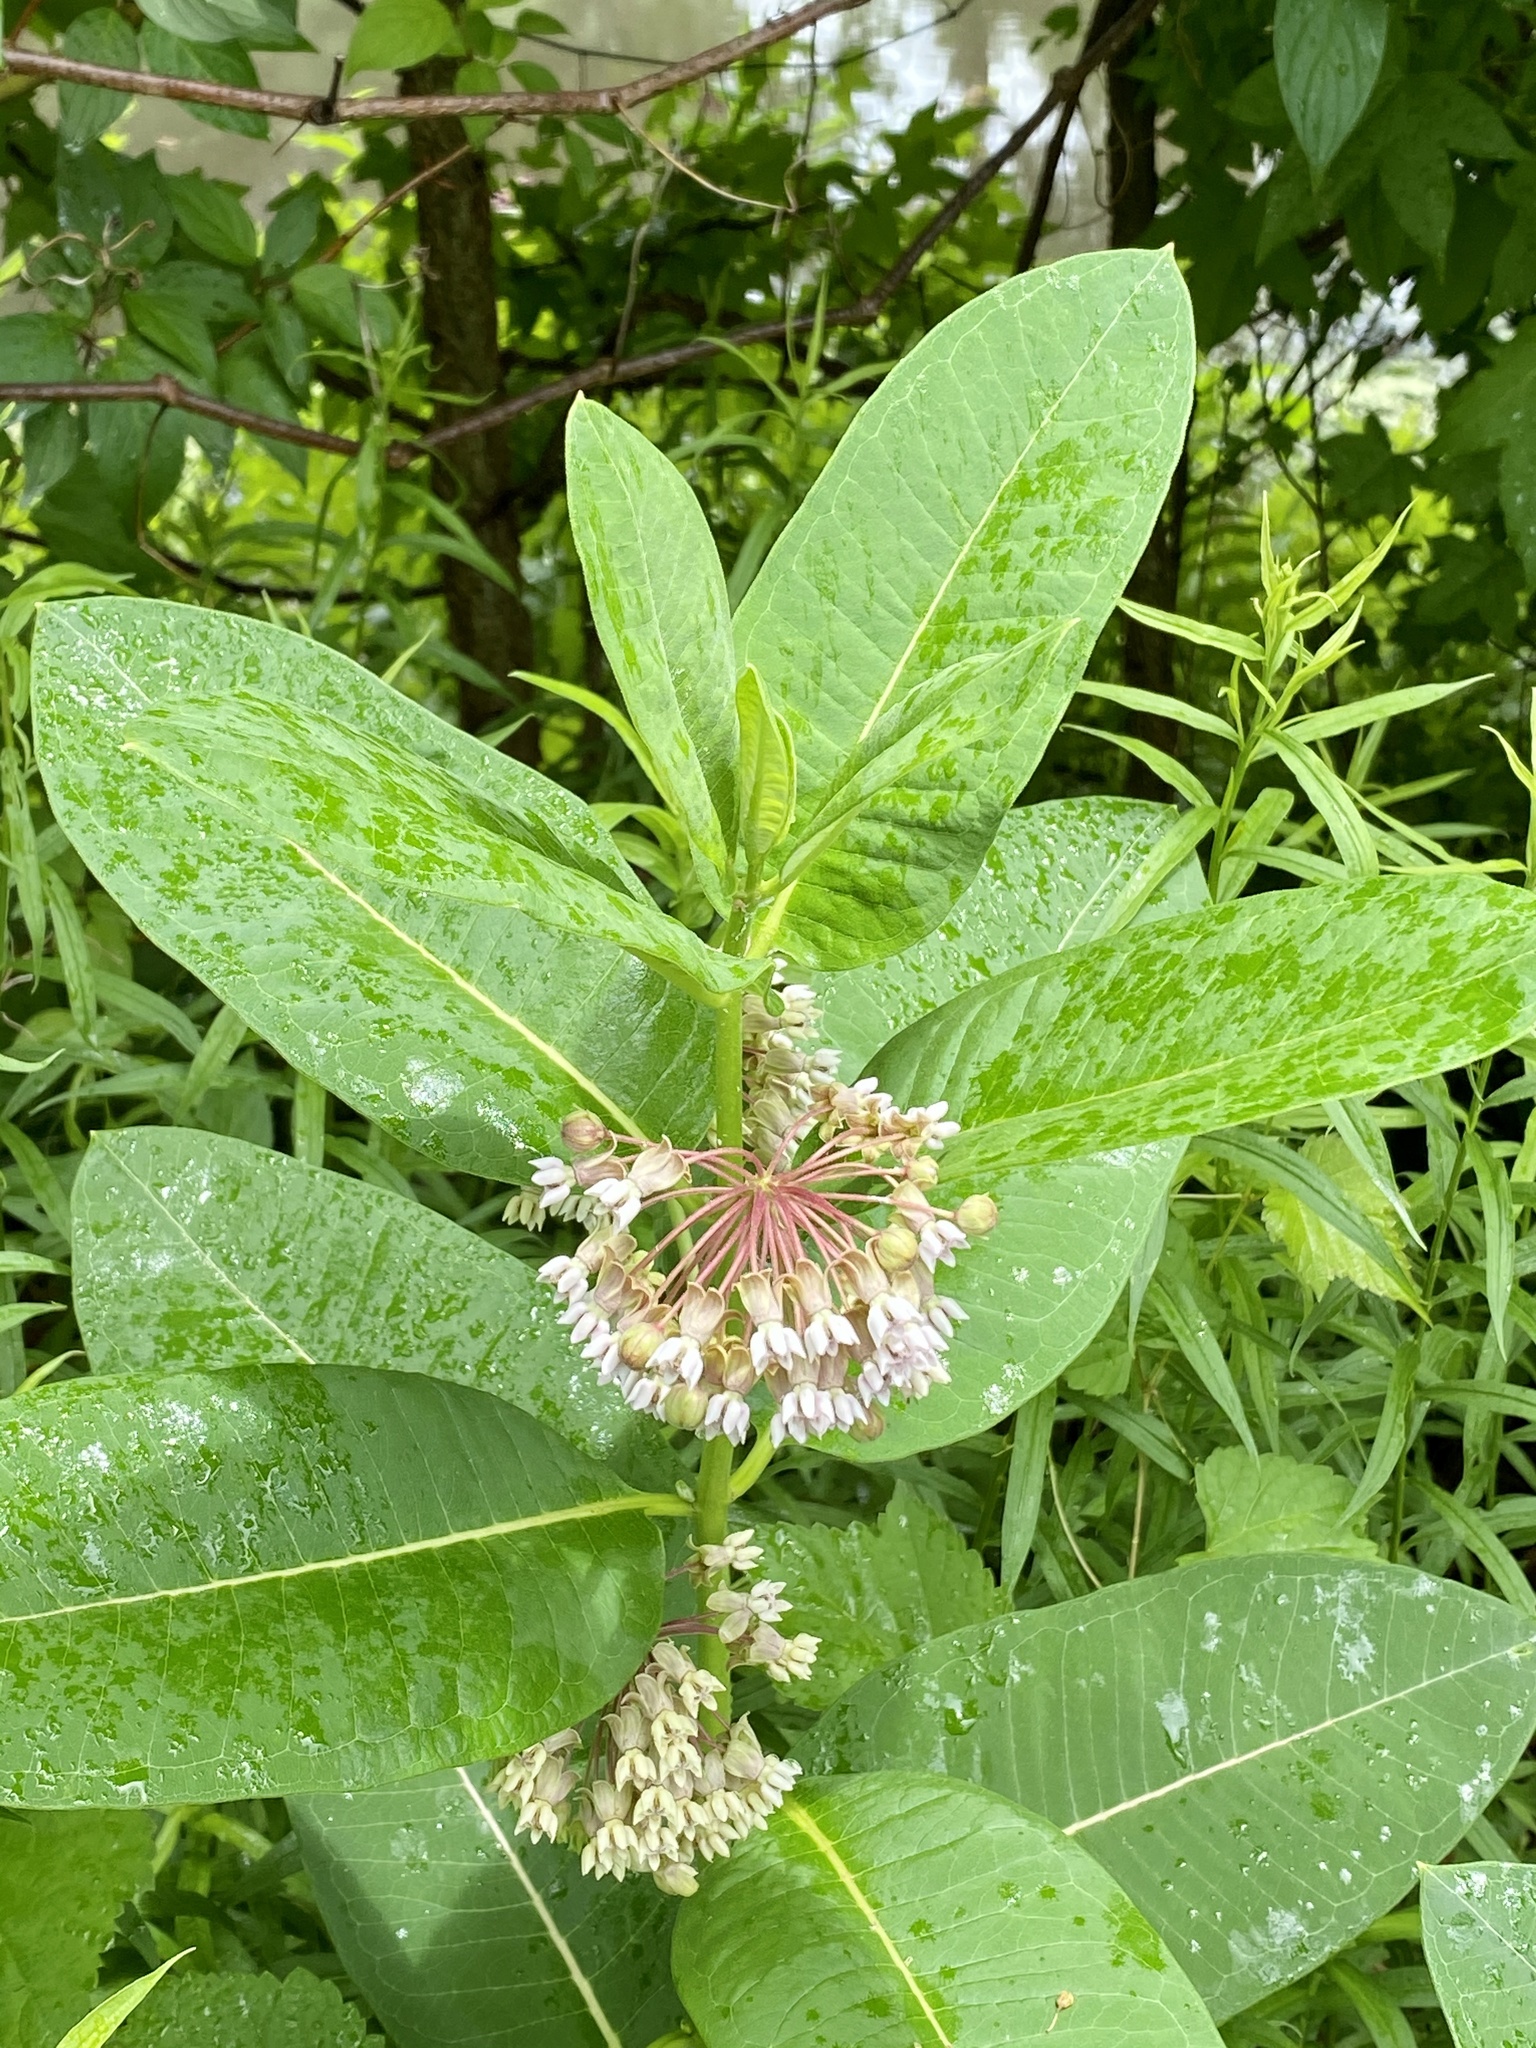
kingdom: Plantae
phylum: Tracheophyta
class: Magnoliopsida
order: Gentianales
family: Apocynaceae
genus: Asclepias
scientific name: Asclepias syriaca
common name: Common milkweed
